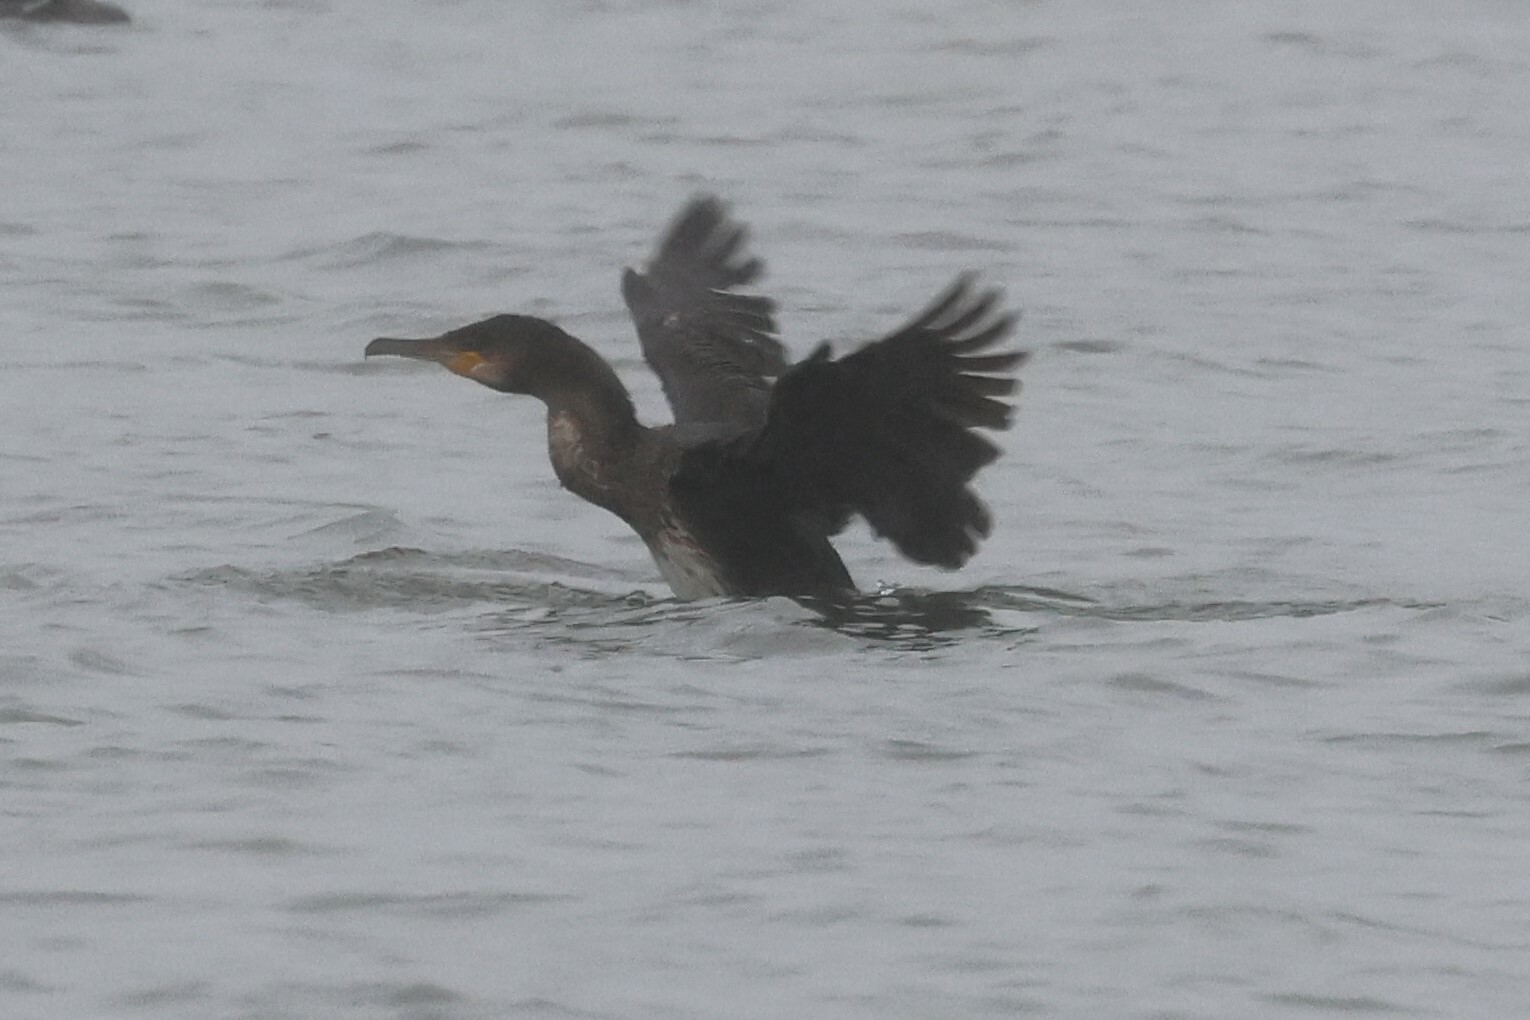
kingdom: Animalia
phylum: Chordata
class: Aves
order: Suliformes
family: Phalacrocoracidae
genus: Phalacrocorax
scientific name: Phalacrocorax carbo
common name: Great cormorant
